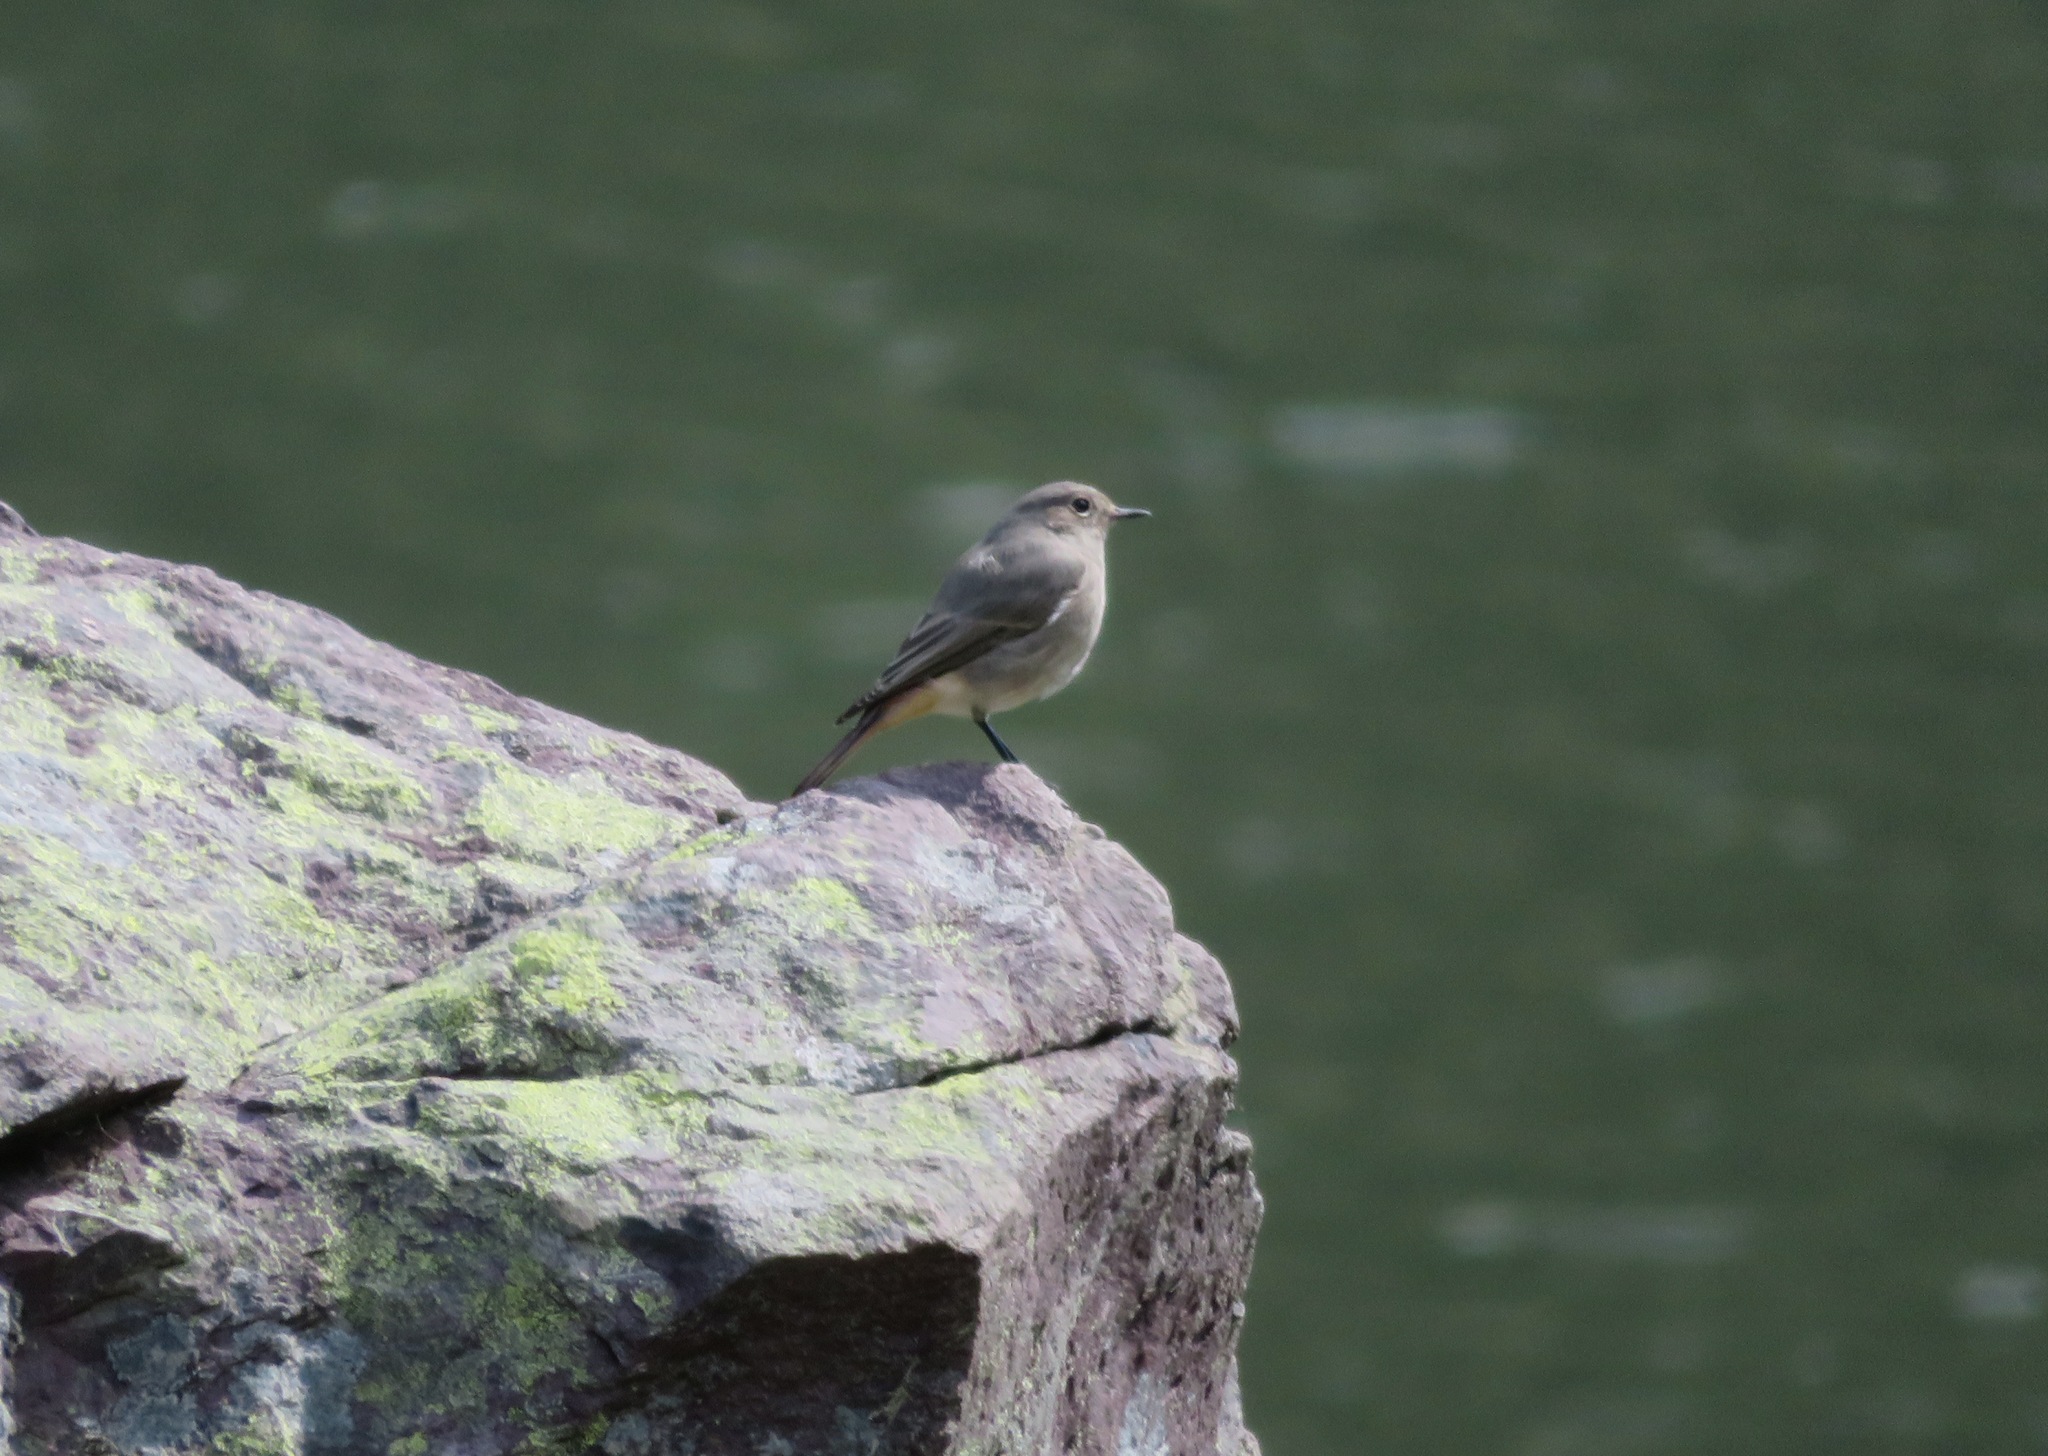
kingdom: Animalia
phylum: Chordata
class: Aves
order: Passeriformes
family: Muscicapidae
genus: Phoenicurus
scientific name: Phoenicurus ochruros
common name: Black redstart
